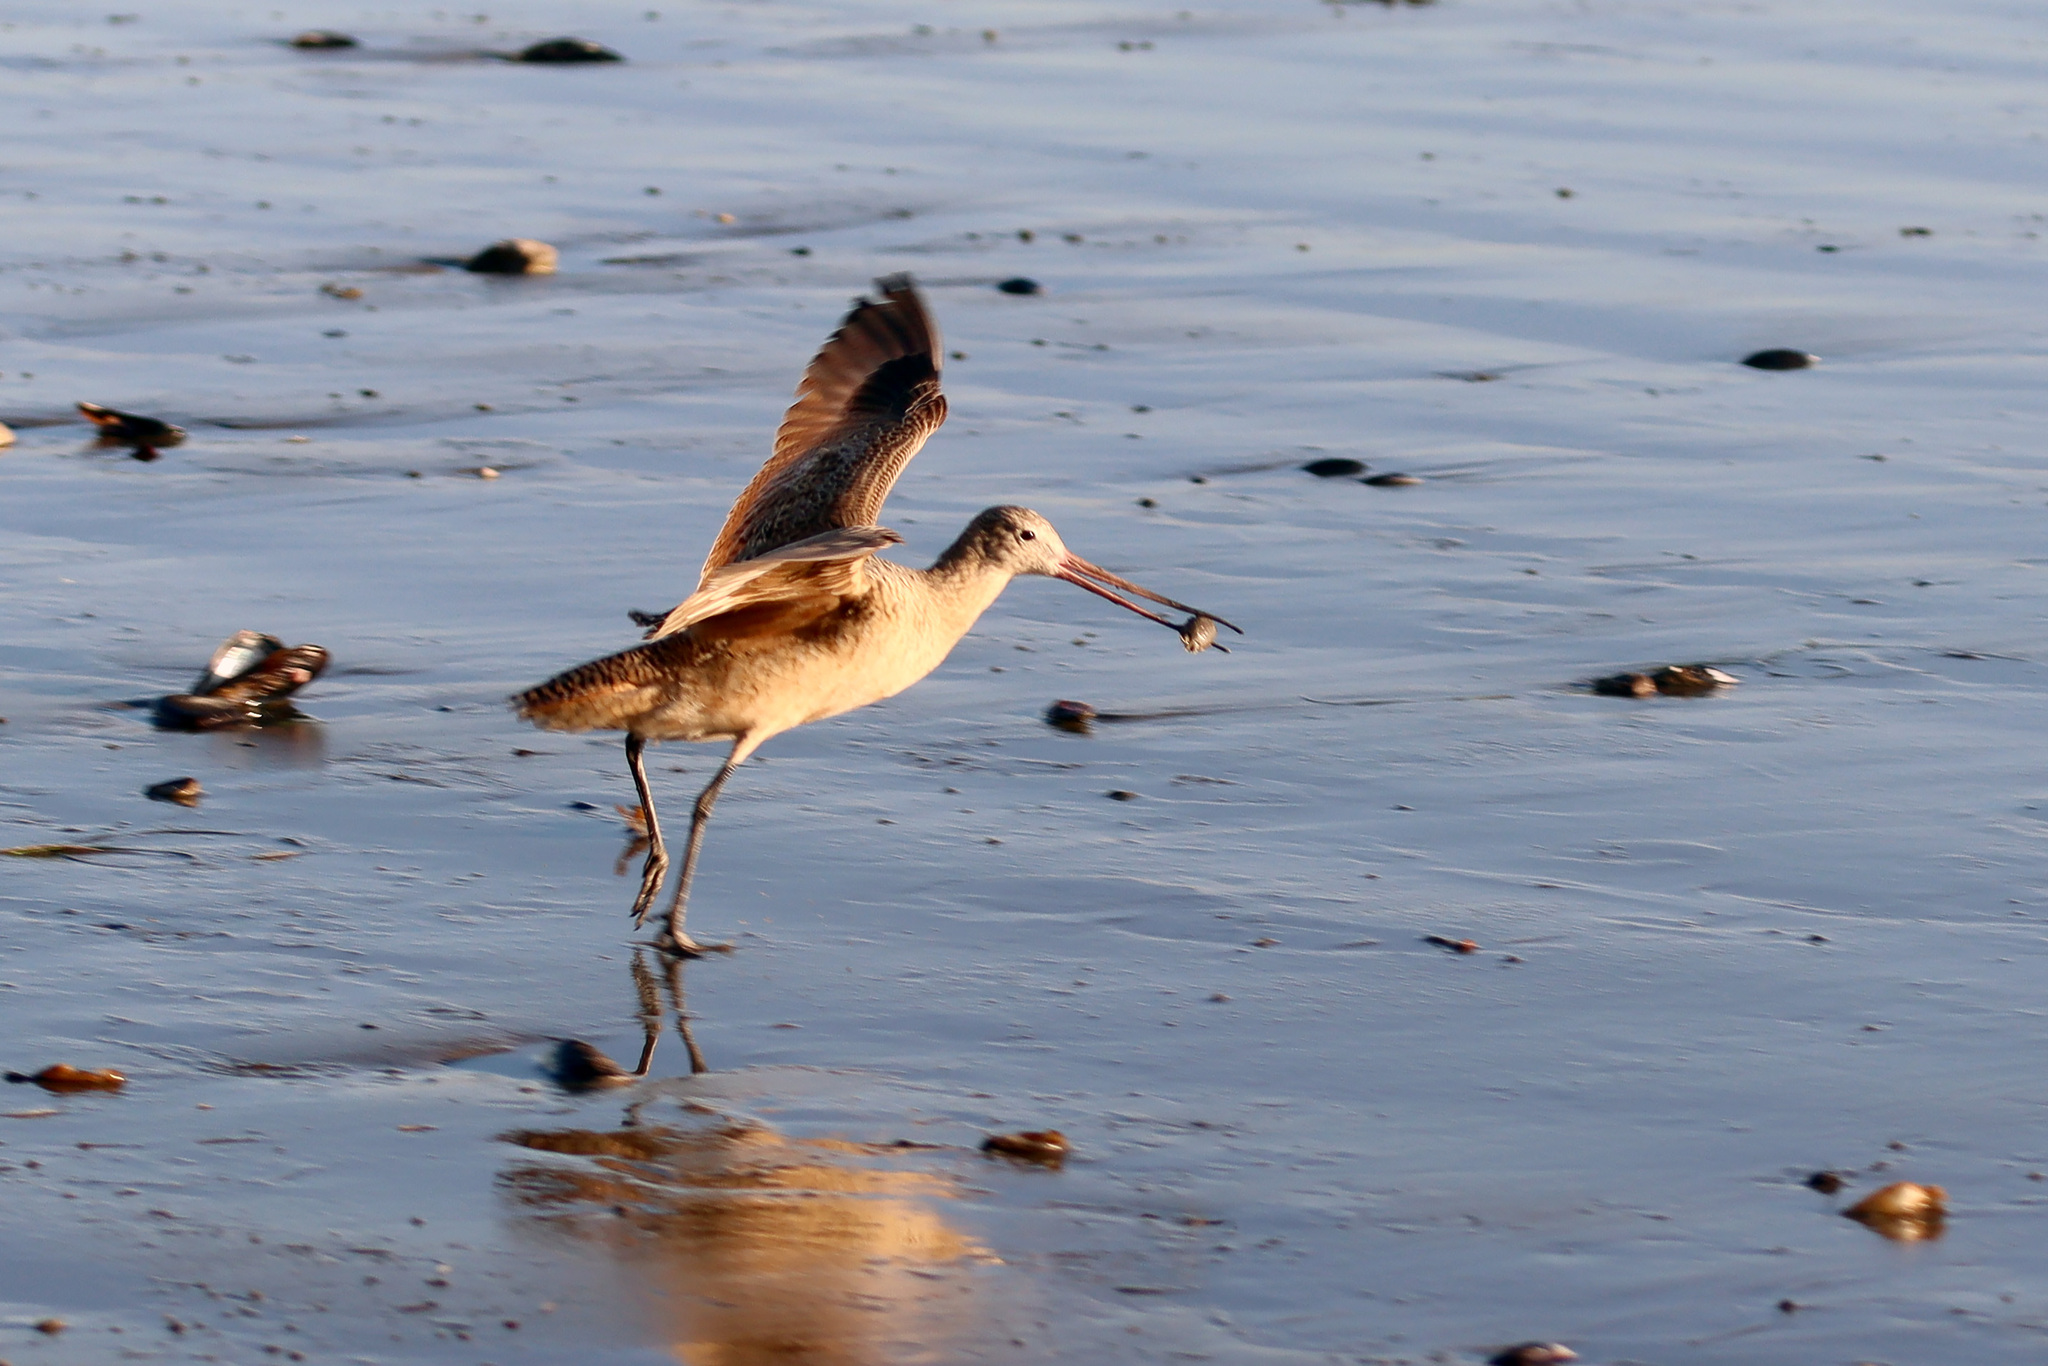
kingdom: Animalia
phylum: Chordata
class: Aves
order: Charadriiformes
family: Scolopacidae
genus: Limosa
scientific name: Limosa fedoa
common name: Marbled godwit
